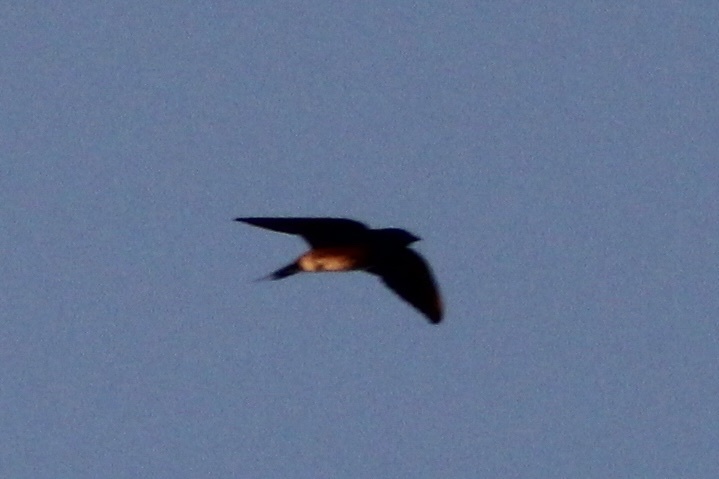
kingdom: Animalia
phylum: Chordata
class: Aves
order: Passeriformes
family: Hirundinidae
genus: Hirundo
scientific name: Hirundo rustica
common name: Barn swallow
